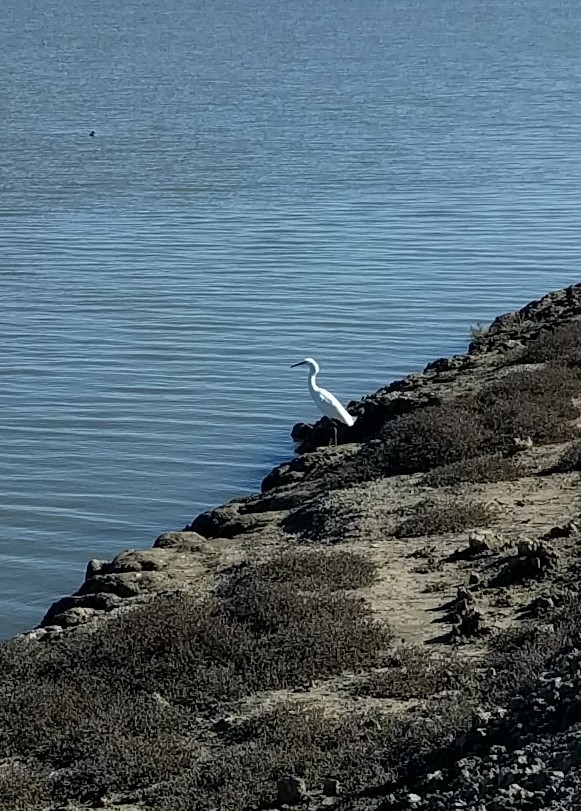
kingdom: Animalia
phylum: Chordata
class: Aves
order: Pelecaniformes
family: Ardeidae
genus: Egretta
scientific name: Egretta thula
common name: Snowy egret
